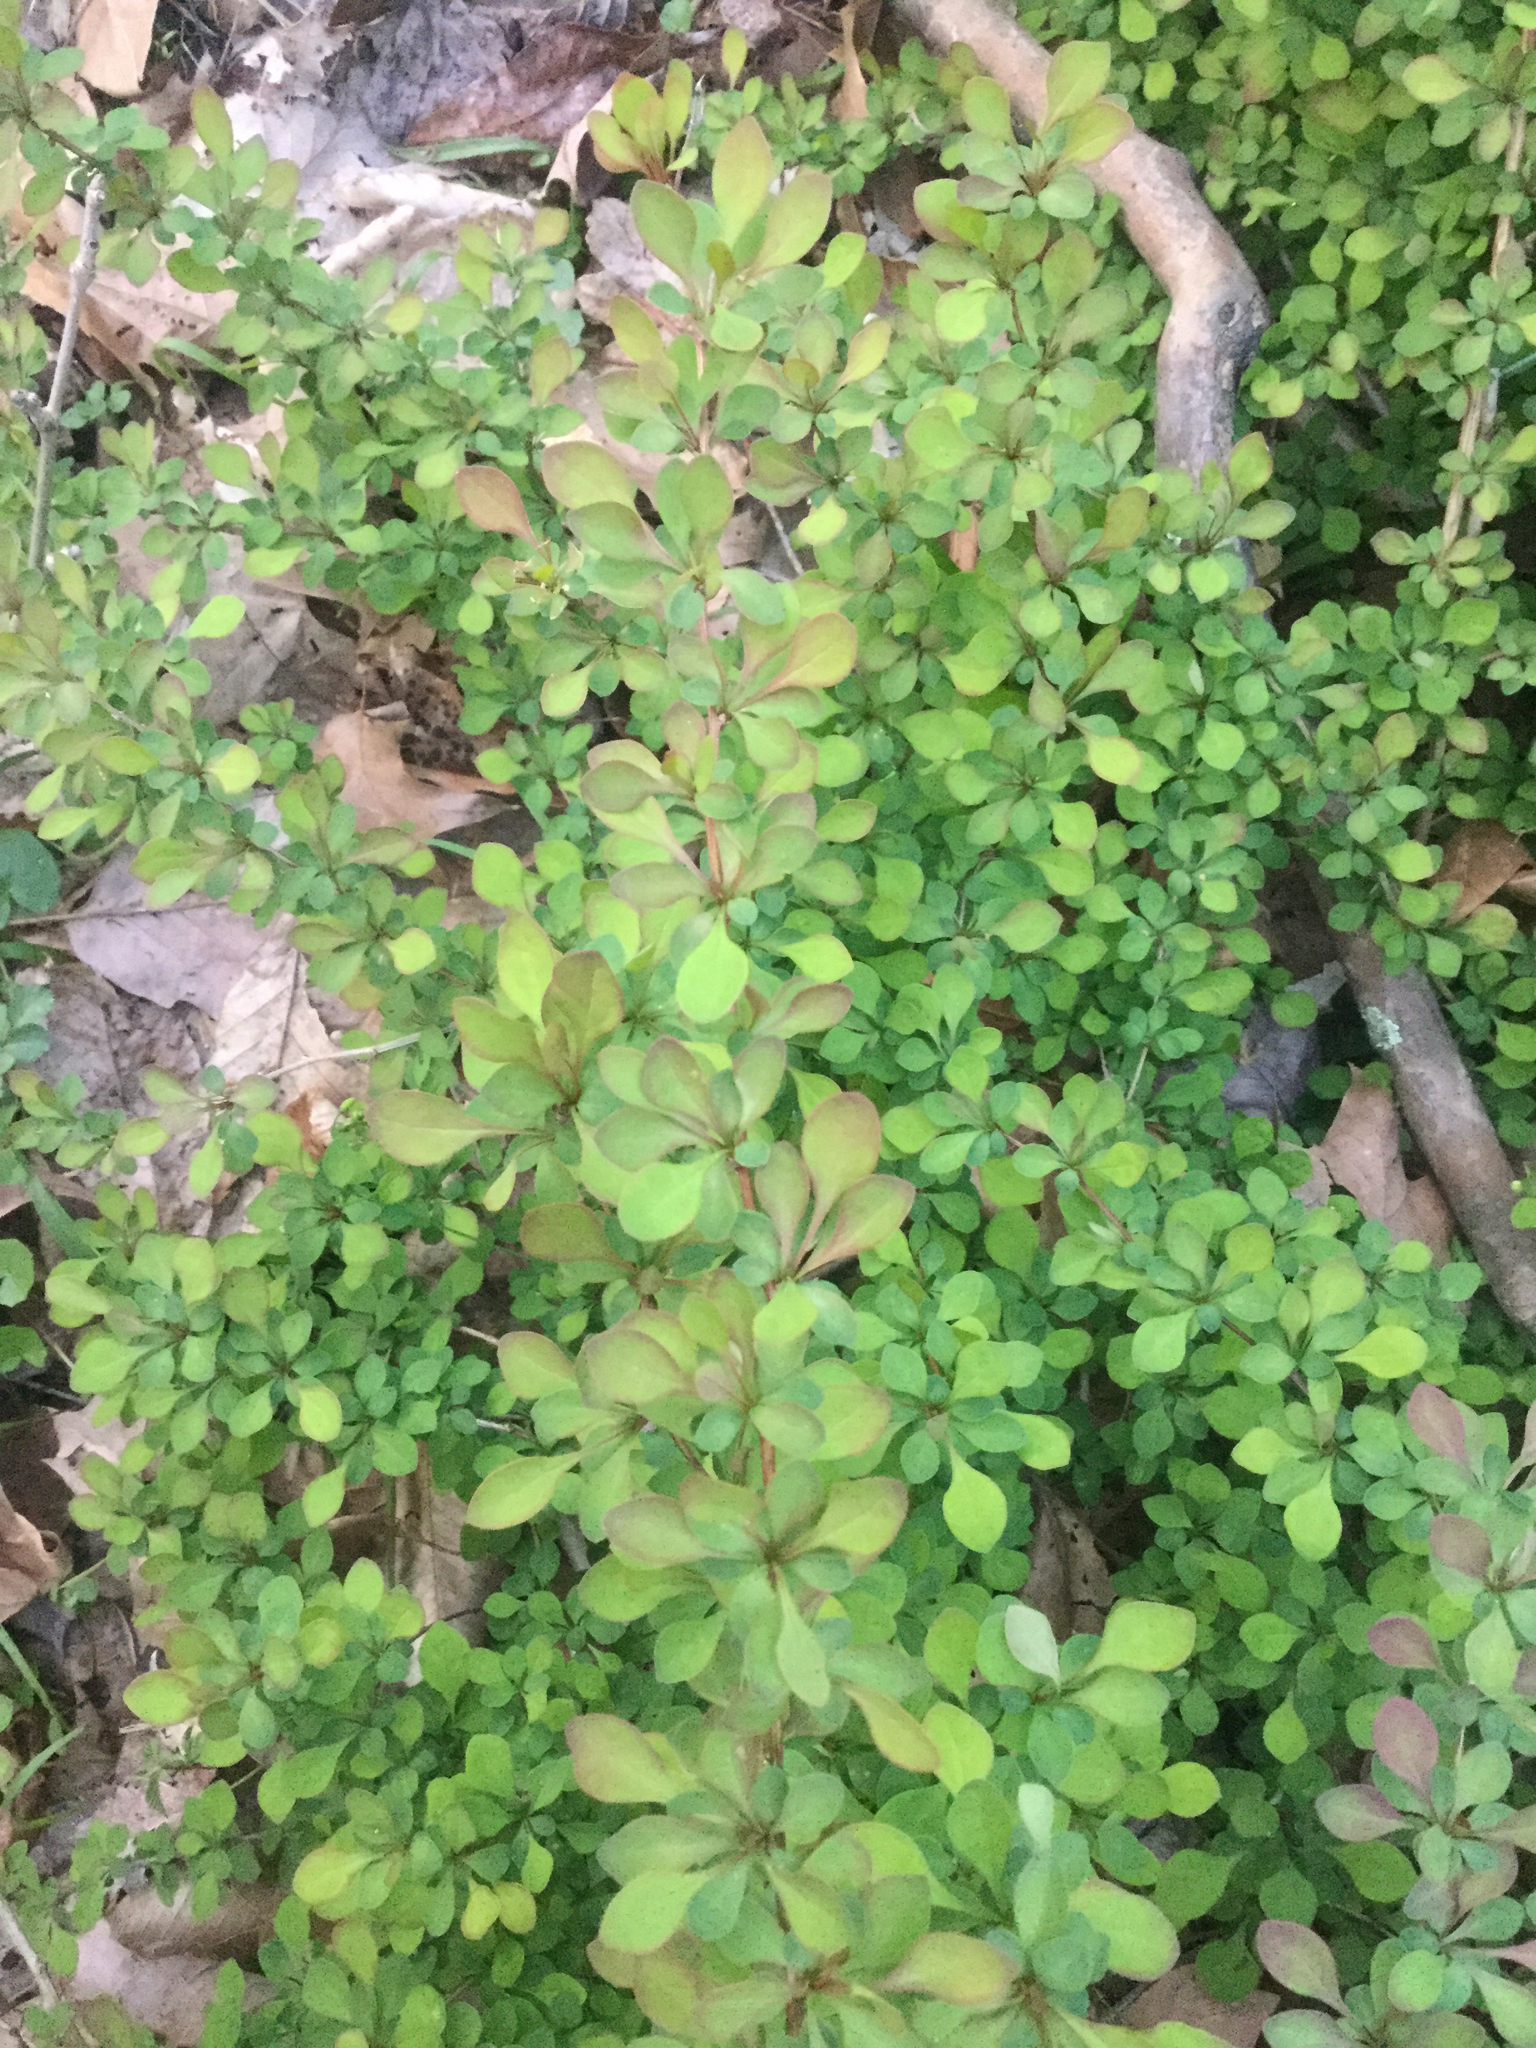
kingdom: Plantae
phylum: Tracheophyta
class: Magnoliopsida
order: Ranunculales
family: Berberidaceae
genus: Berberis
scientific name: Berberis thunbergii
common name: Japanese barberry
